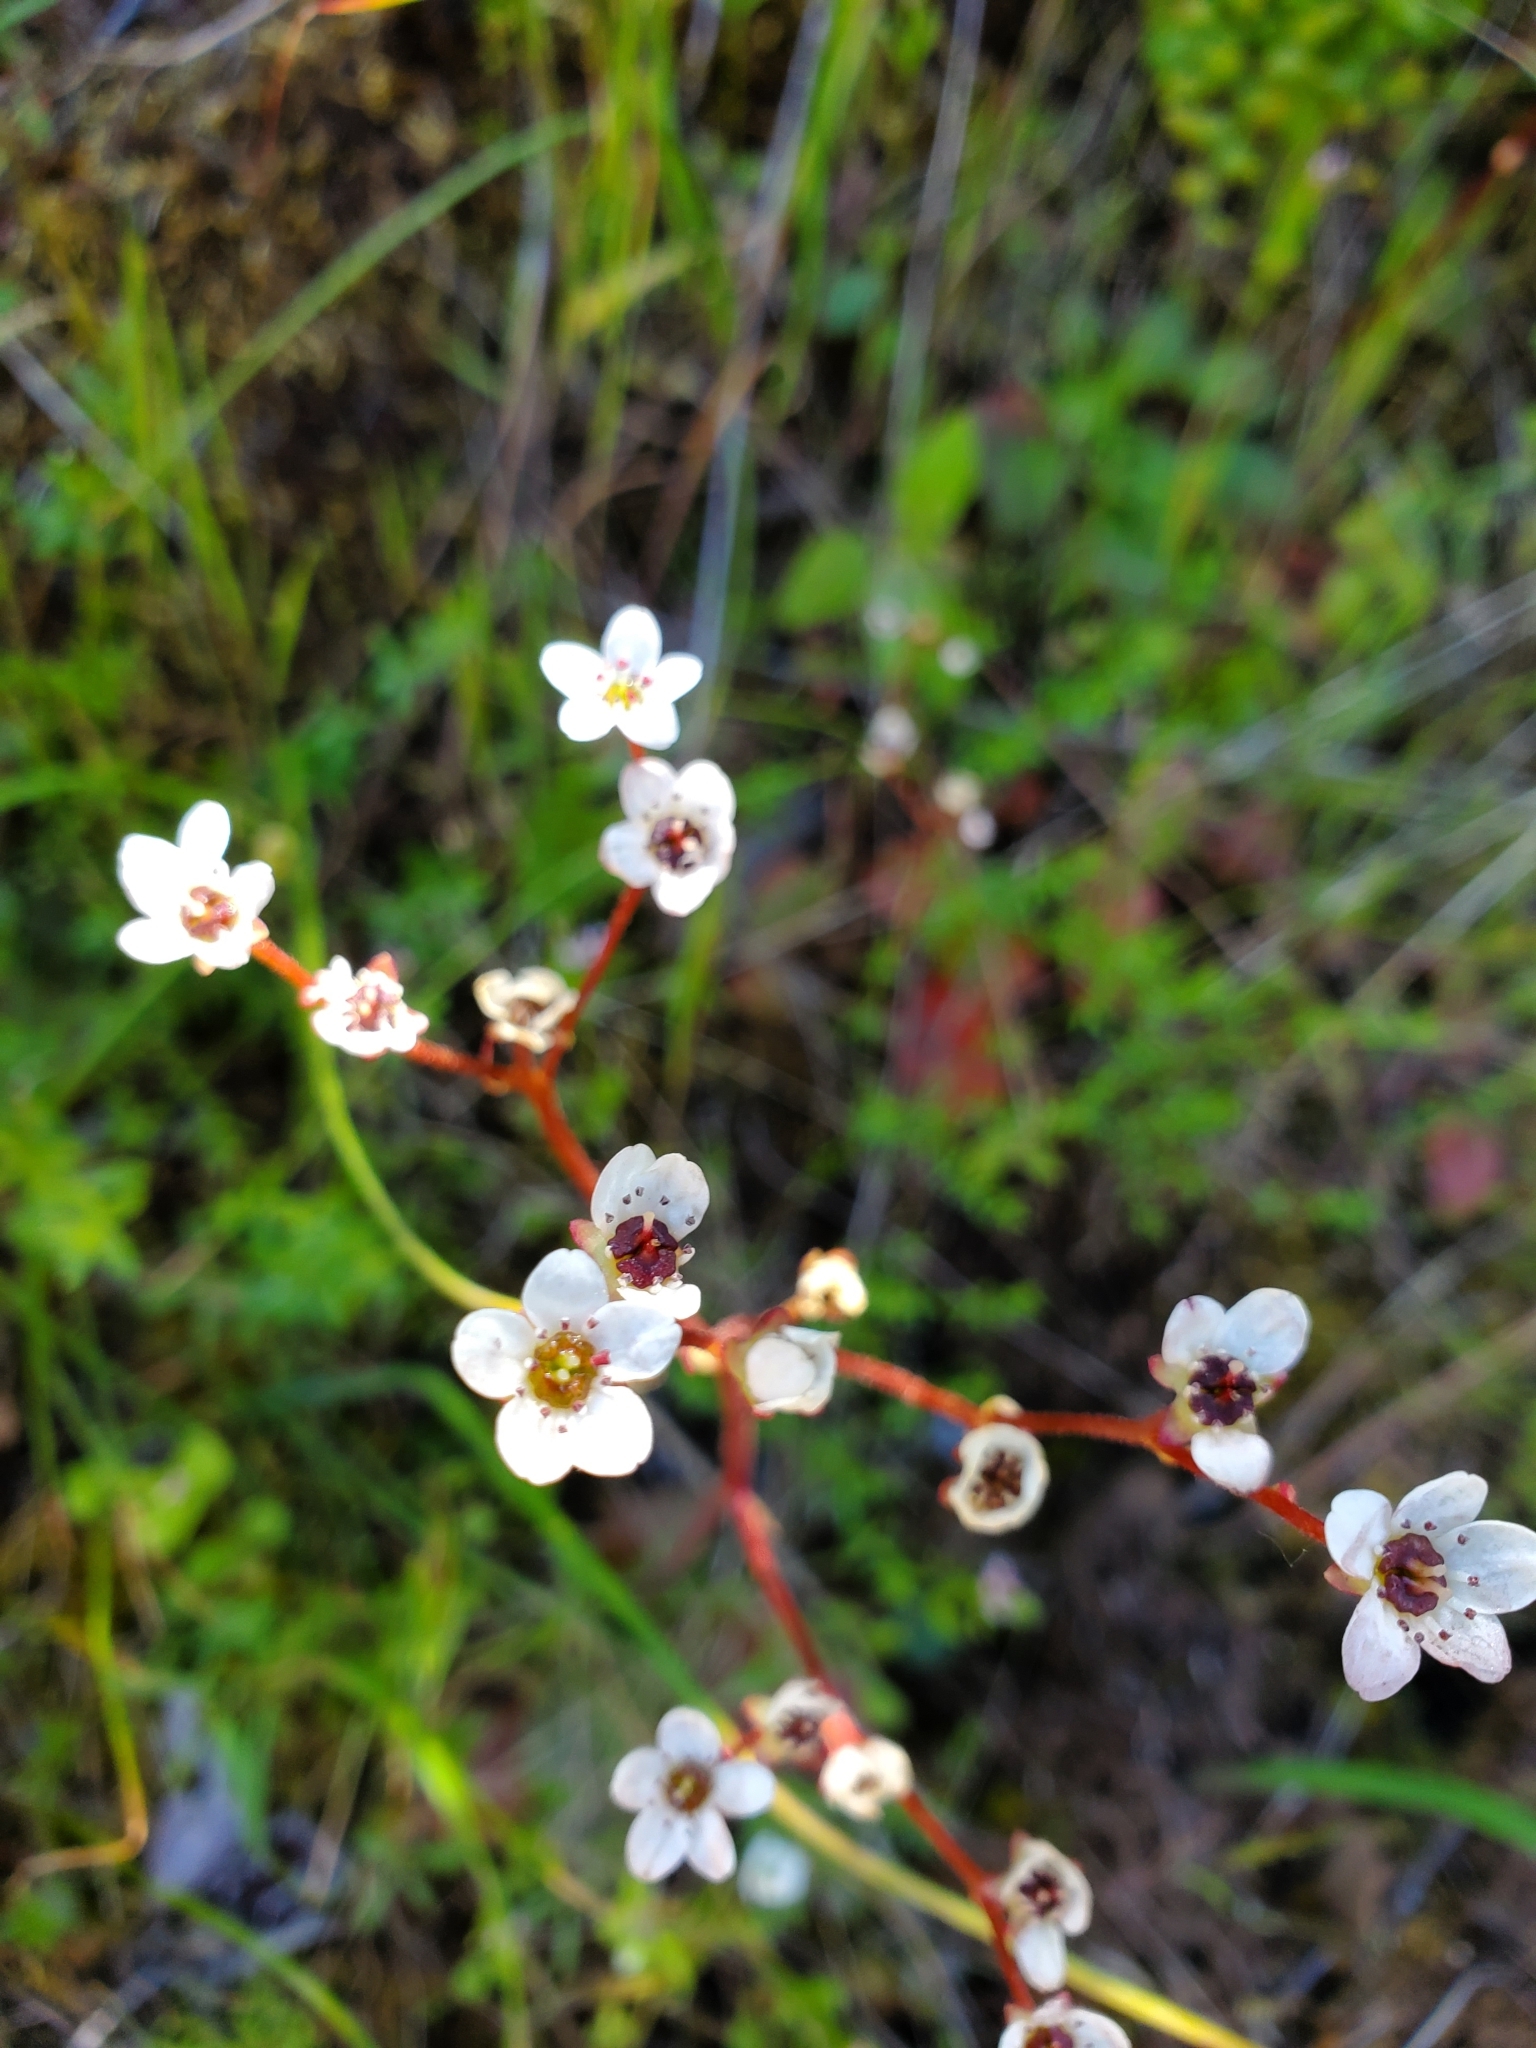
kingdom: Plantae
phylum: Tracheophyta
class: Magnoliopsida
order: Saxifragales
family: Saxifragaceae
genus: Micranthes
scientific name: Micranthes californica
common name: California saxifrage
